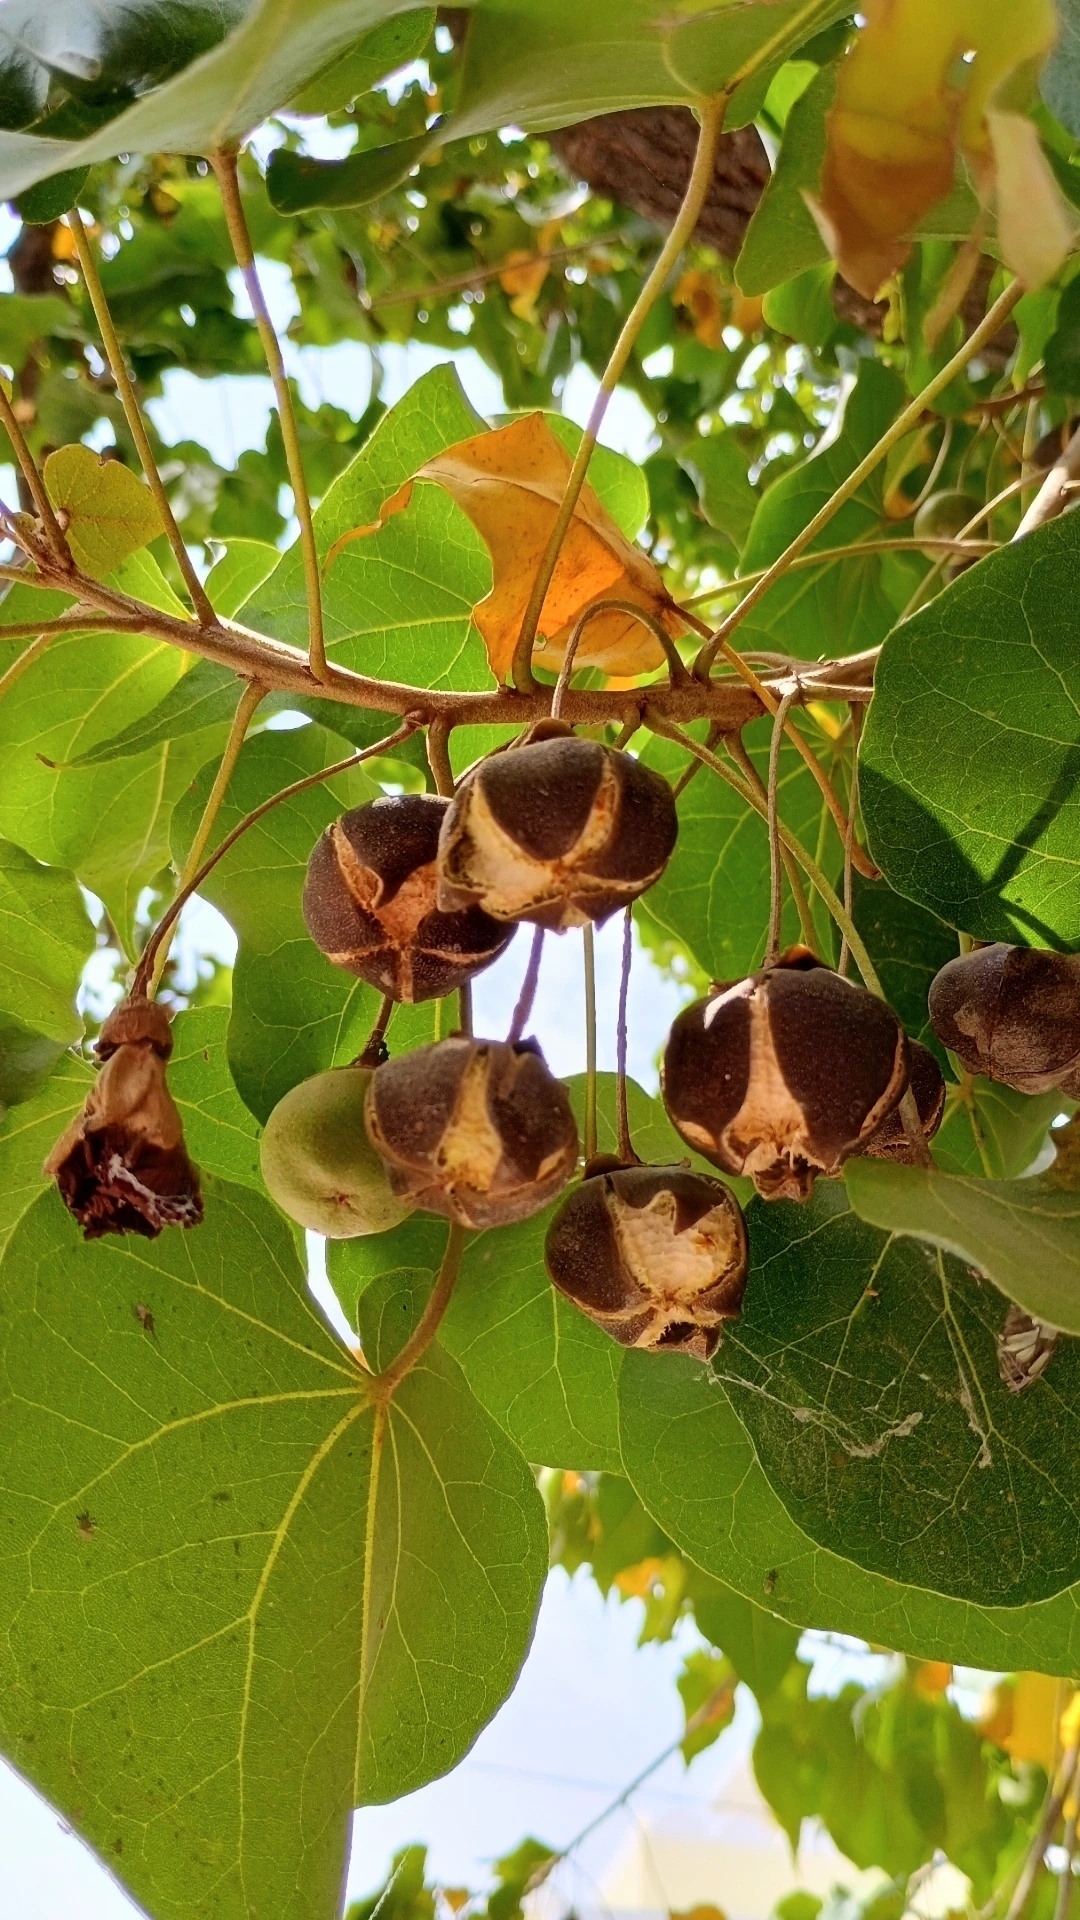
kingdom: Plantae
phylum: Tracheophyta
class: Magnoliopsida
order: Malvales
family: Malvaceae
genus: Thespesia
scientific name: Thespesia populnea
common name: Seaside mahoe
